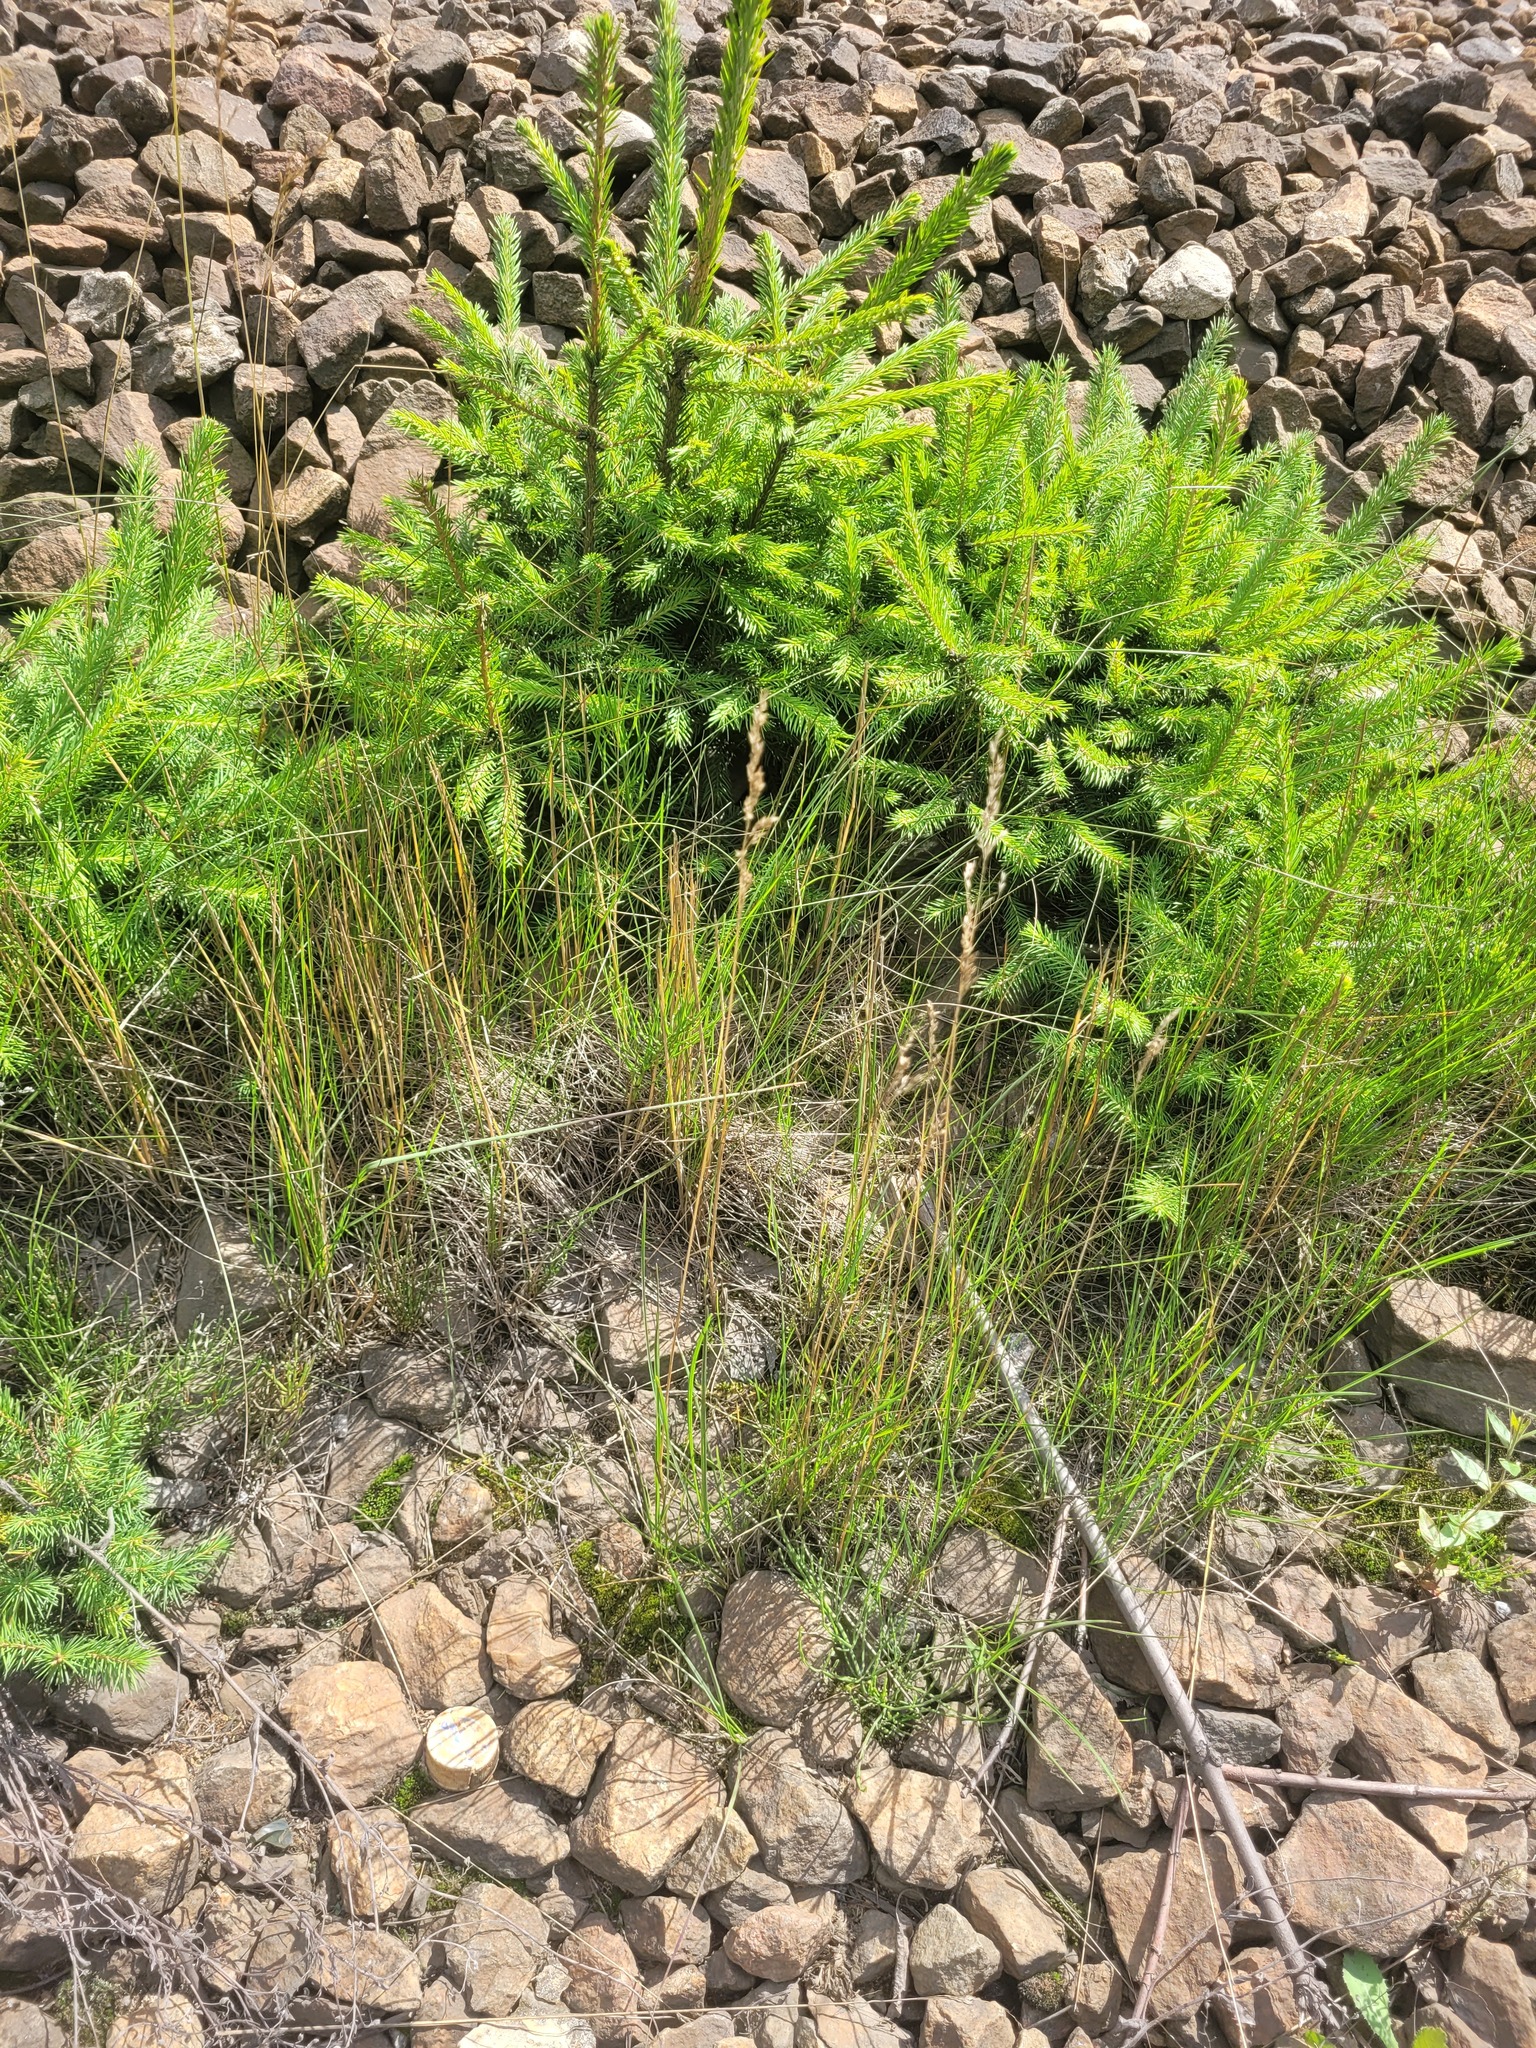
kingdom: Plantae
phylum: Tracheophyta
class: Liliopsida
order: Poales
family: Poaceae
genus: Poa
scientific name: Poa angustifolia
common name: Narrow-leaved meadow-grass
